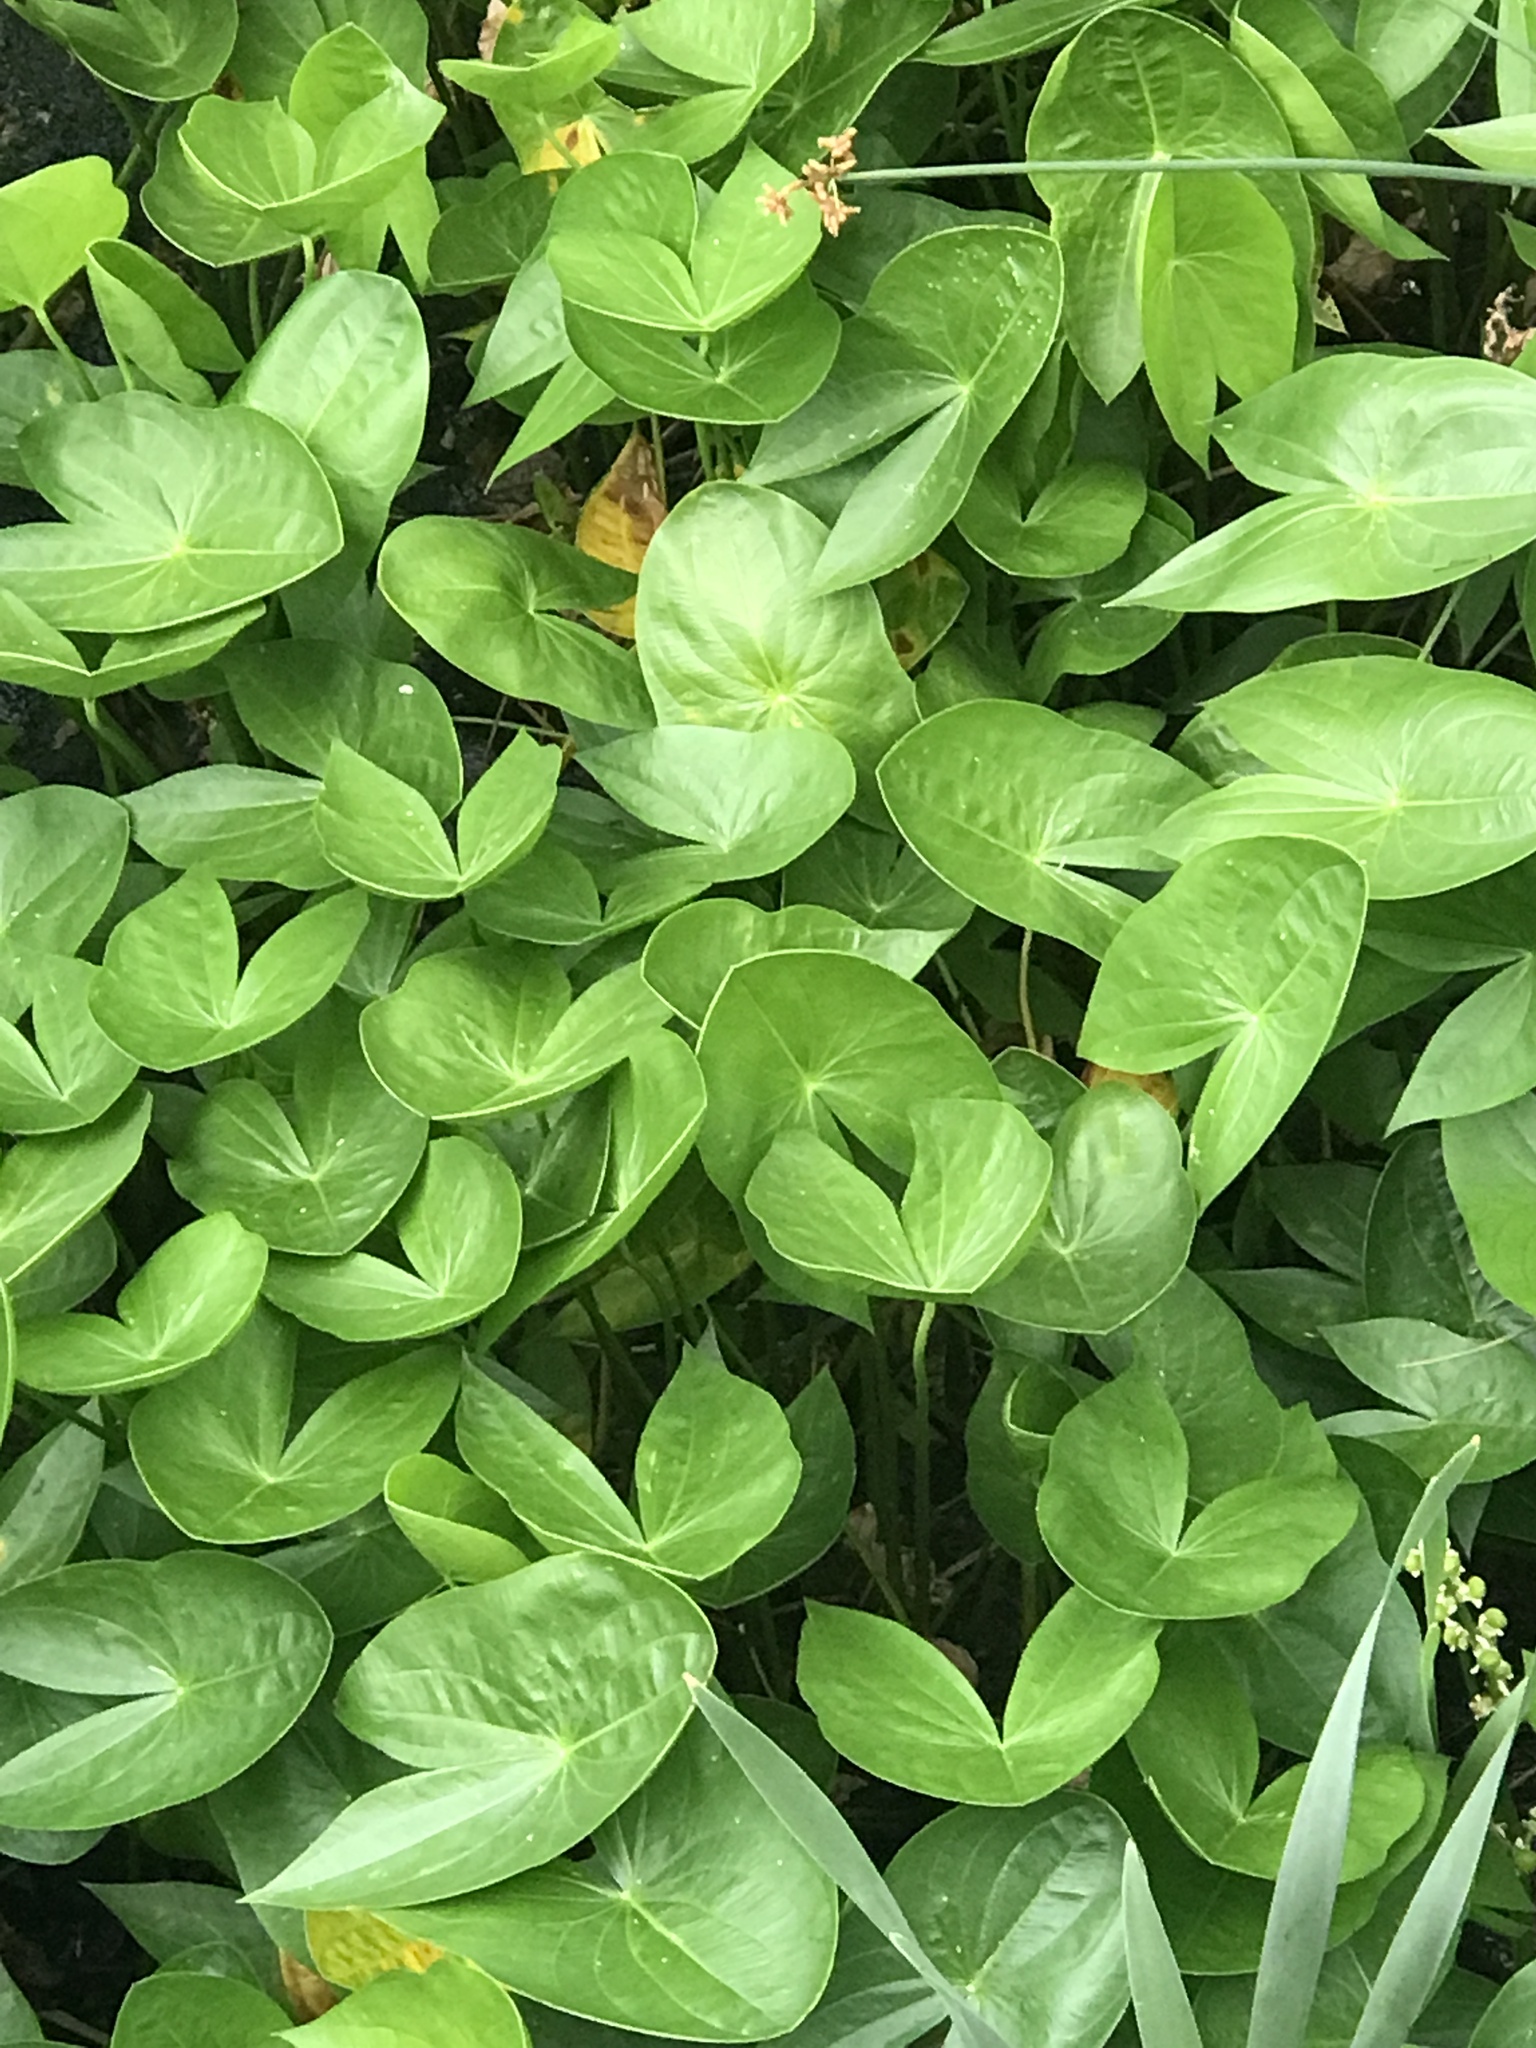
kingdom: Plantae
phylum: Tracheophyta
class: Liliopsida
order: Alismatales
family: Alismataceae
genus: Sagittaria
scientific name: Sagittaria latifolia
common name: Duck-potato
